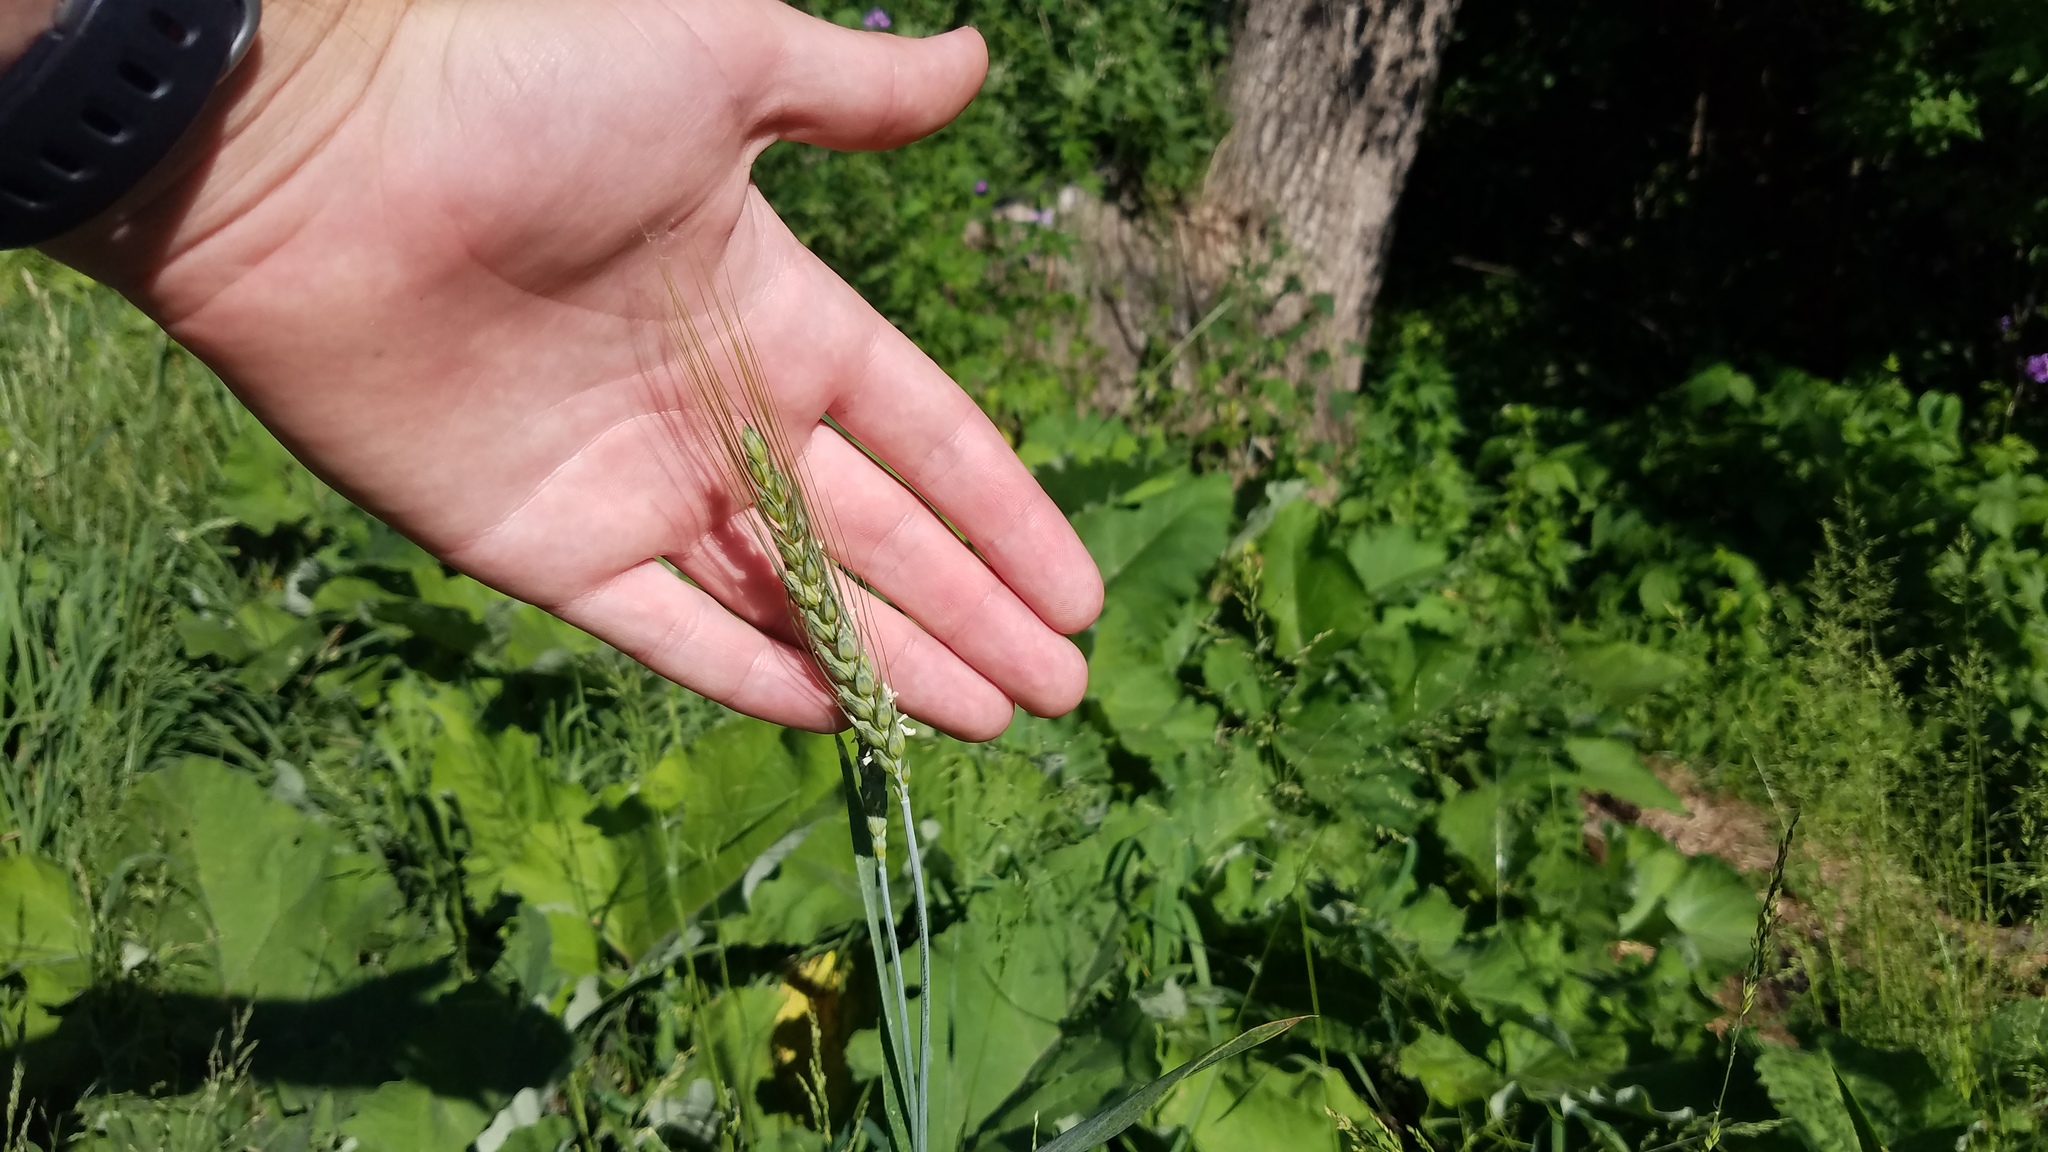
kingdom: Plantae
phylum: Tracheophyta
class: Liliopsida
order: Poales
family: Poaceae
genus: Triticum
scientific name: Triticum aestivum
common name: Common wheat
